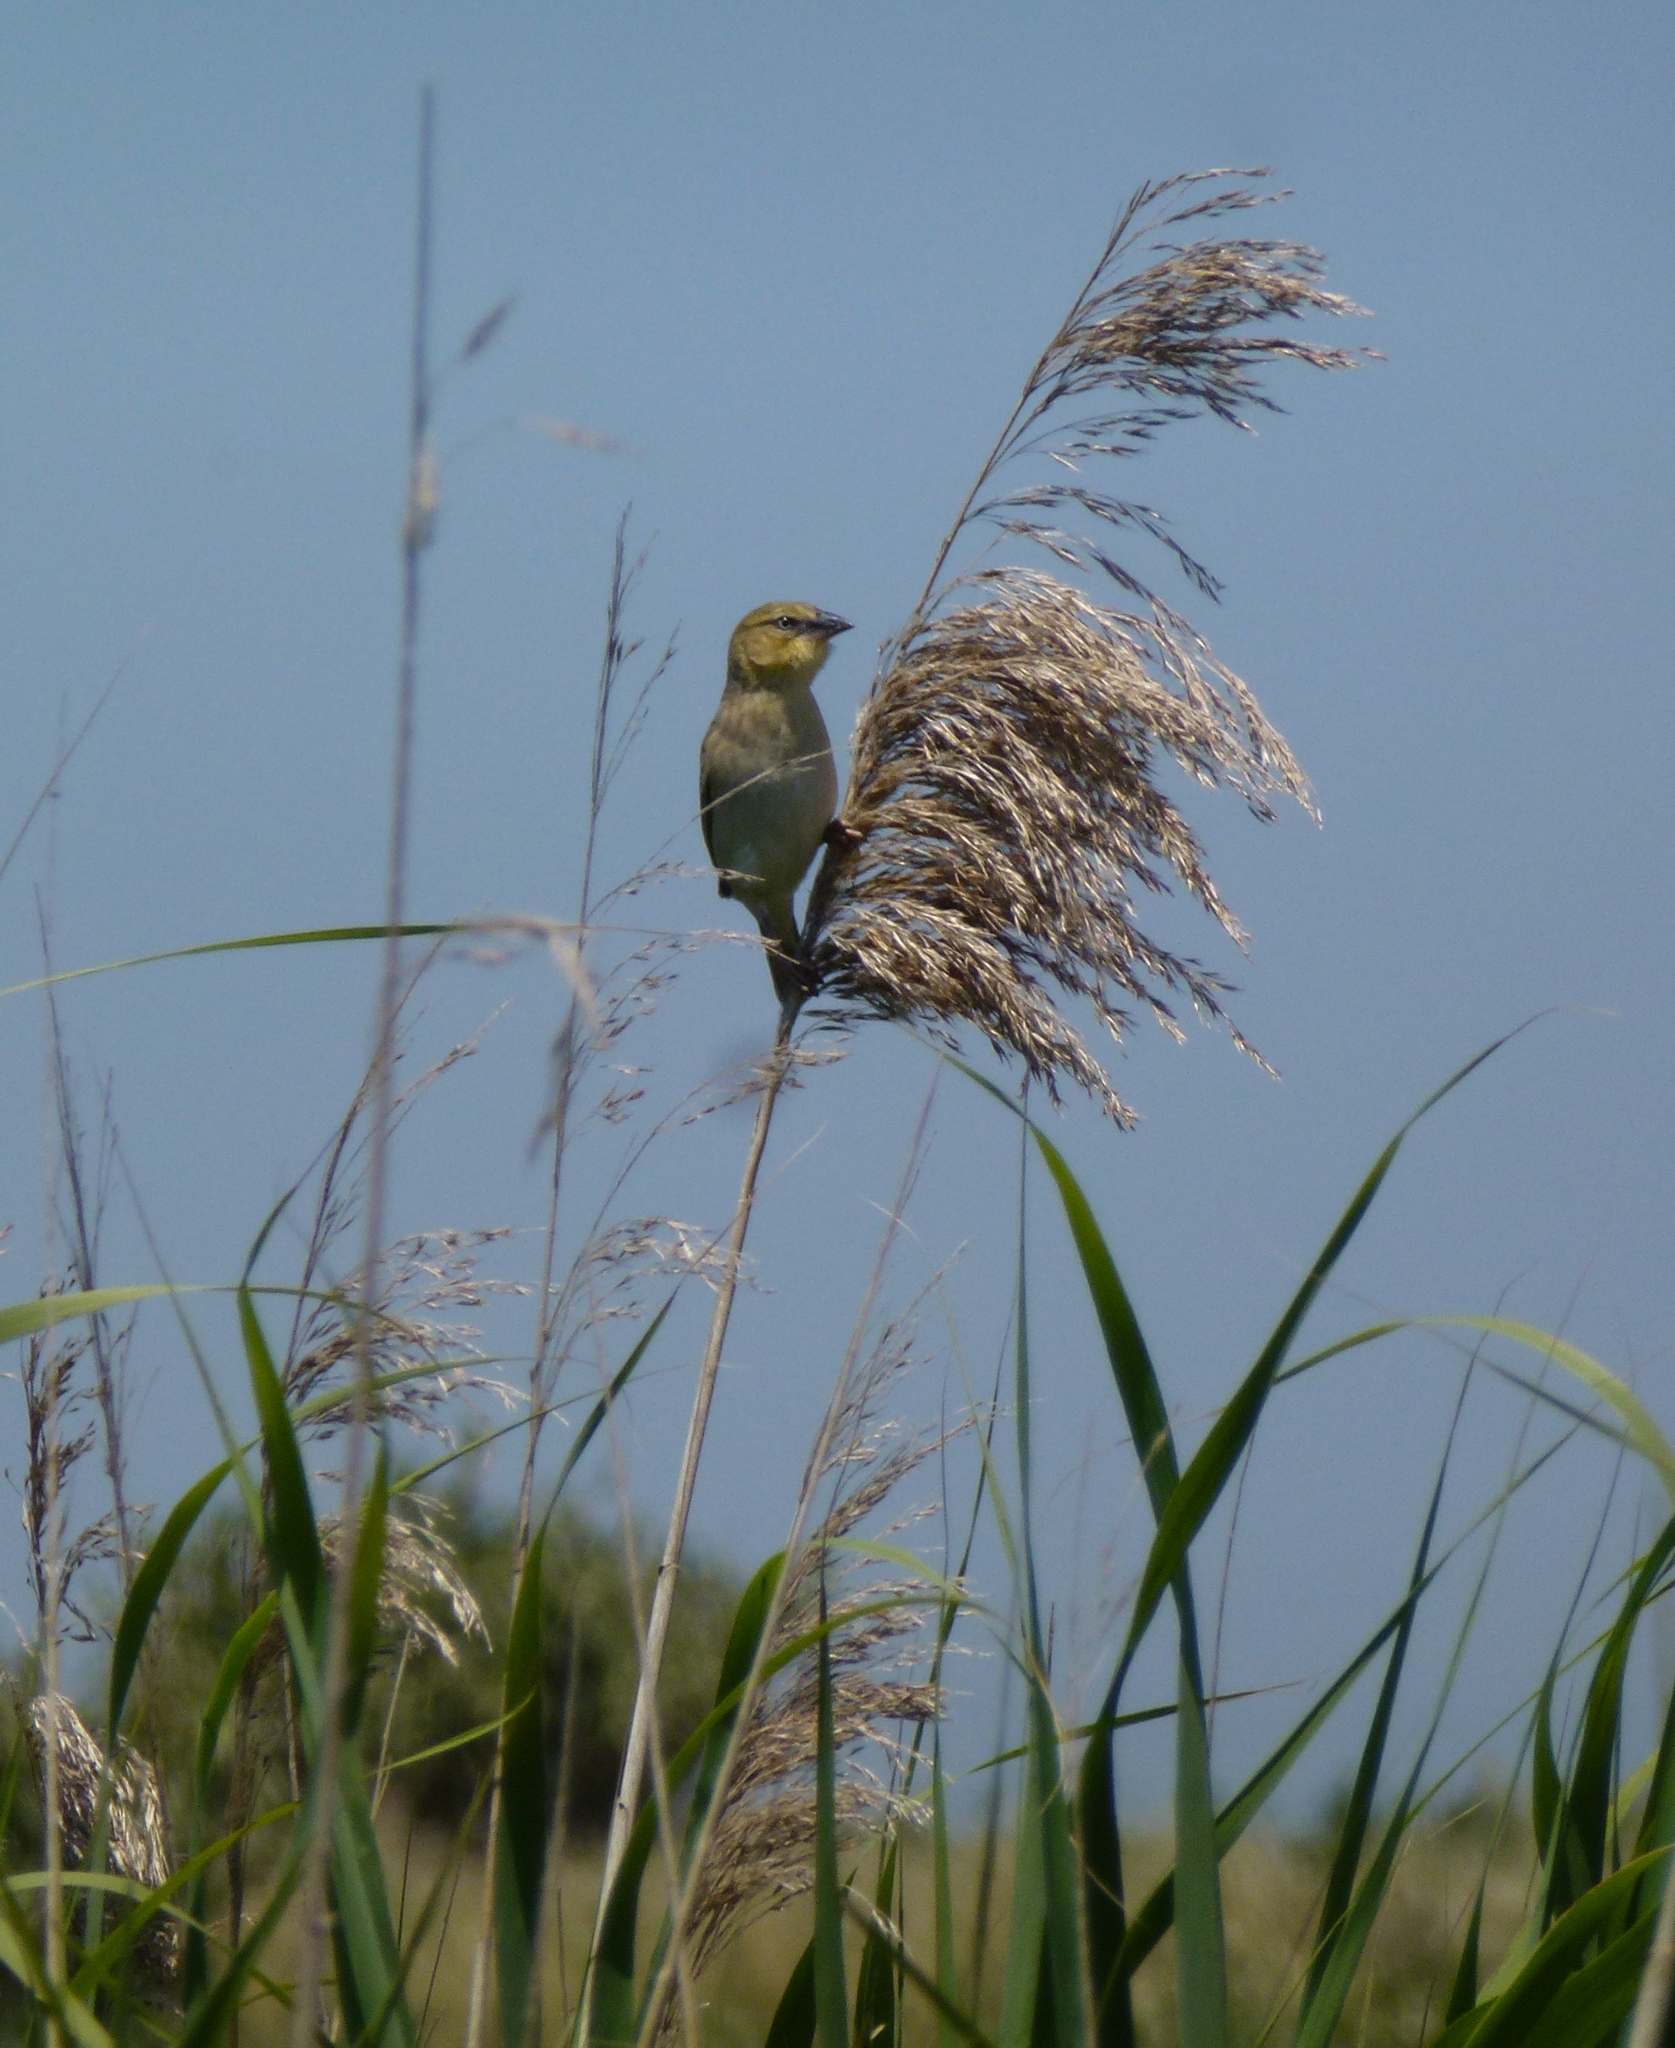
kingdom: Animalia
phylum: Chordata
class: Aves
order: Passeriformes
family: Ploceidae
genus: Ploceus
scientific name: Ploceus melanocephalus
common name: Black-headed weaver
